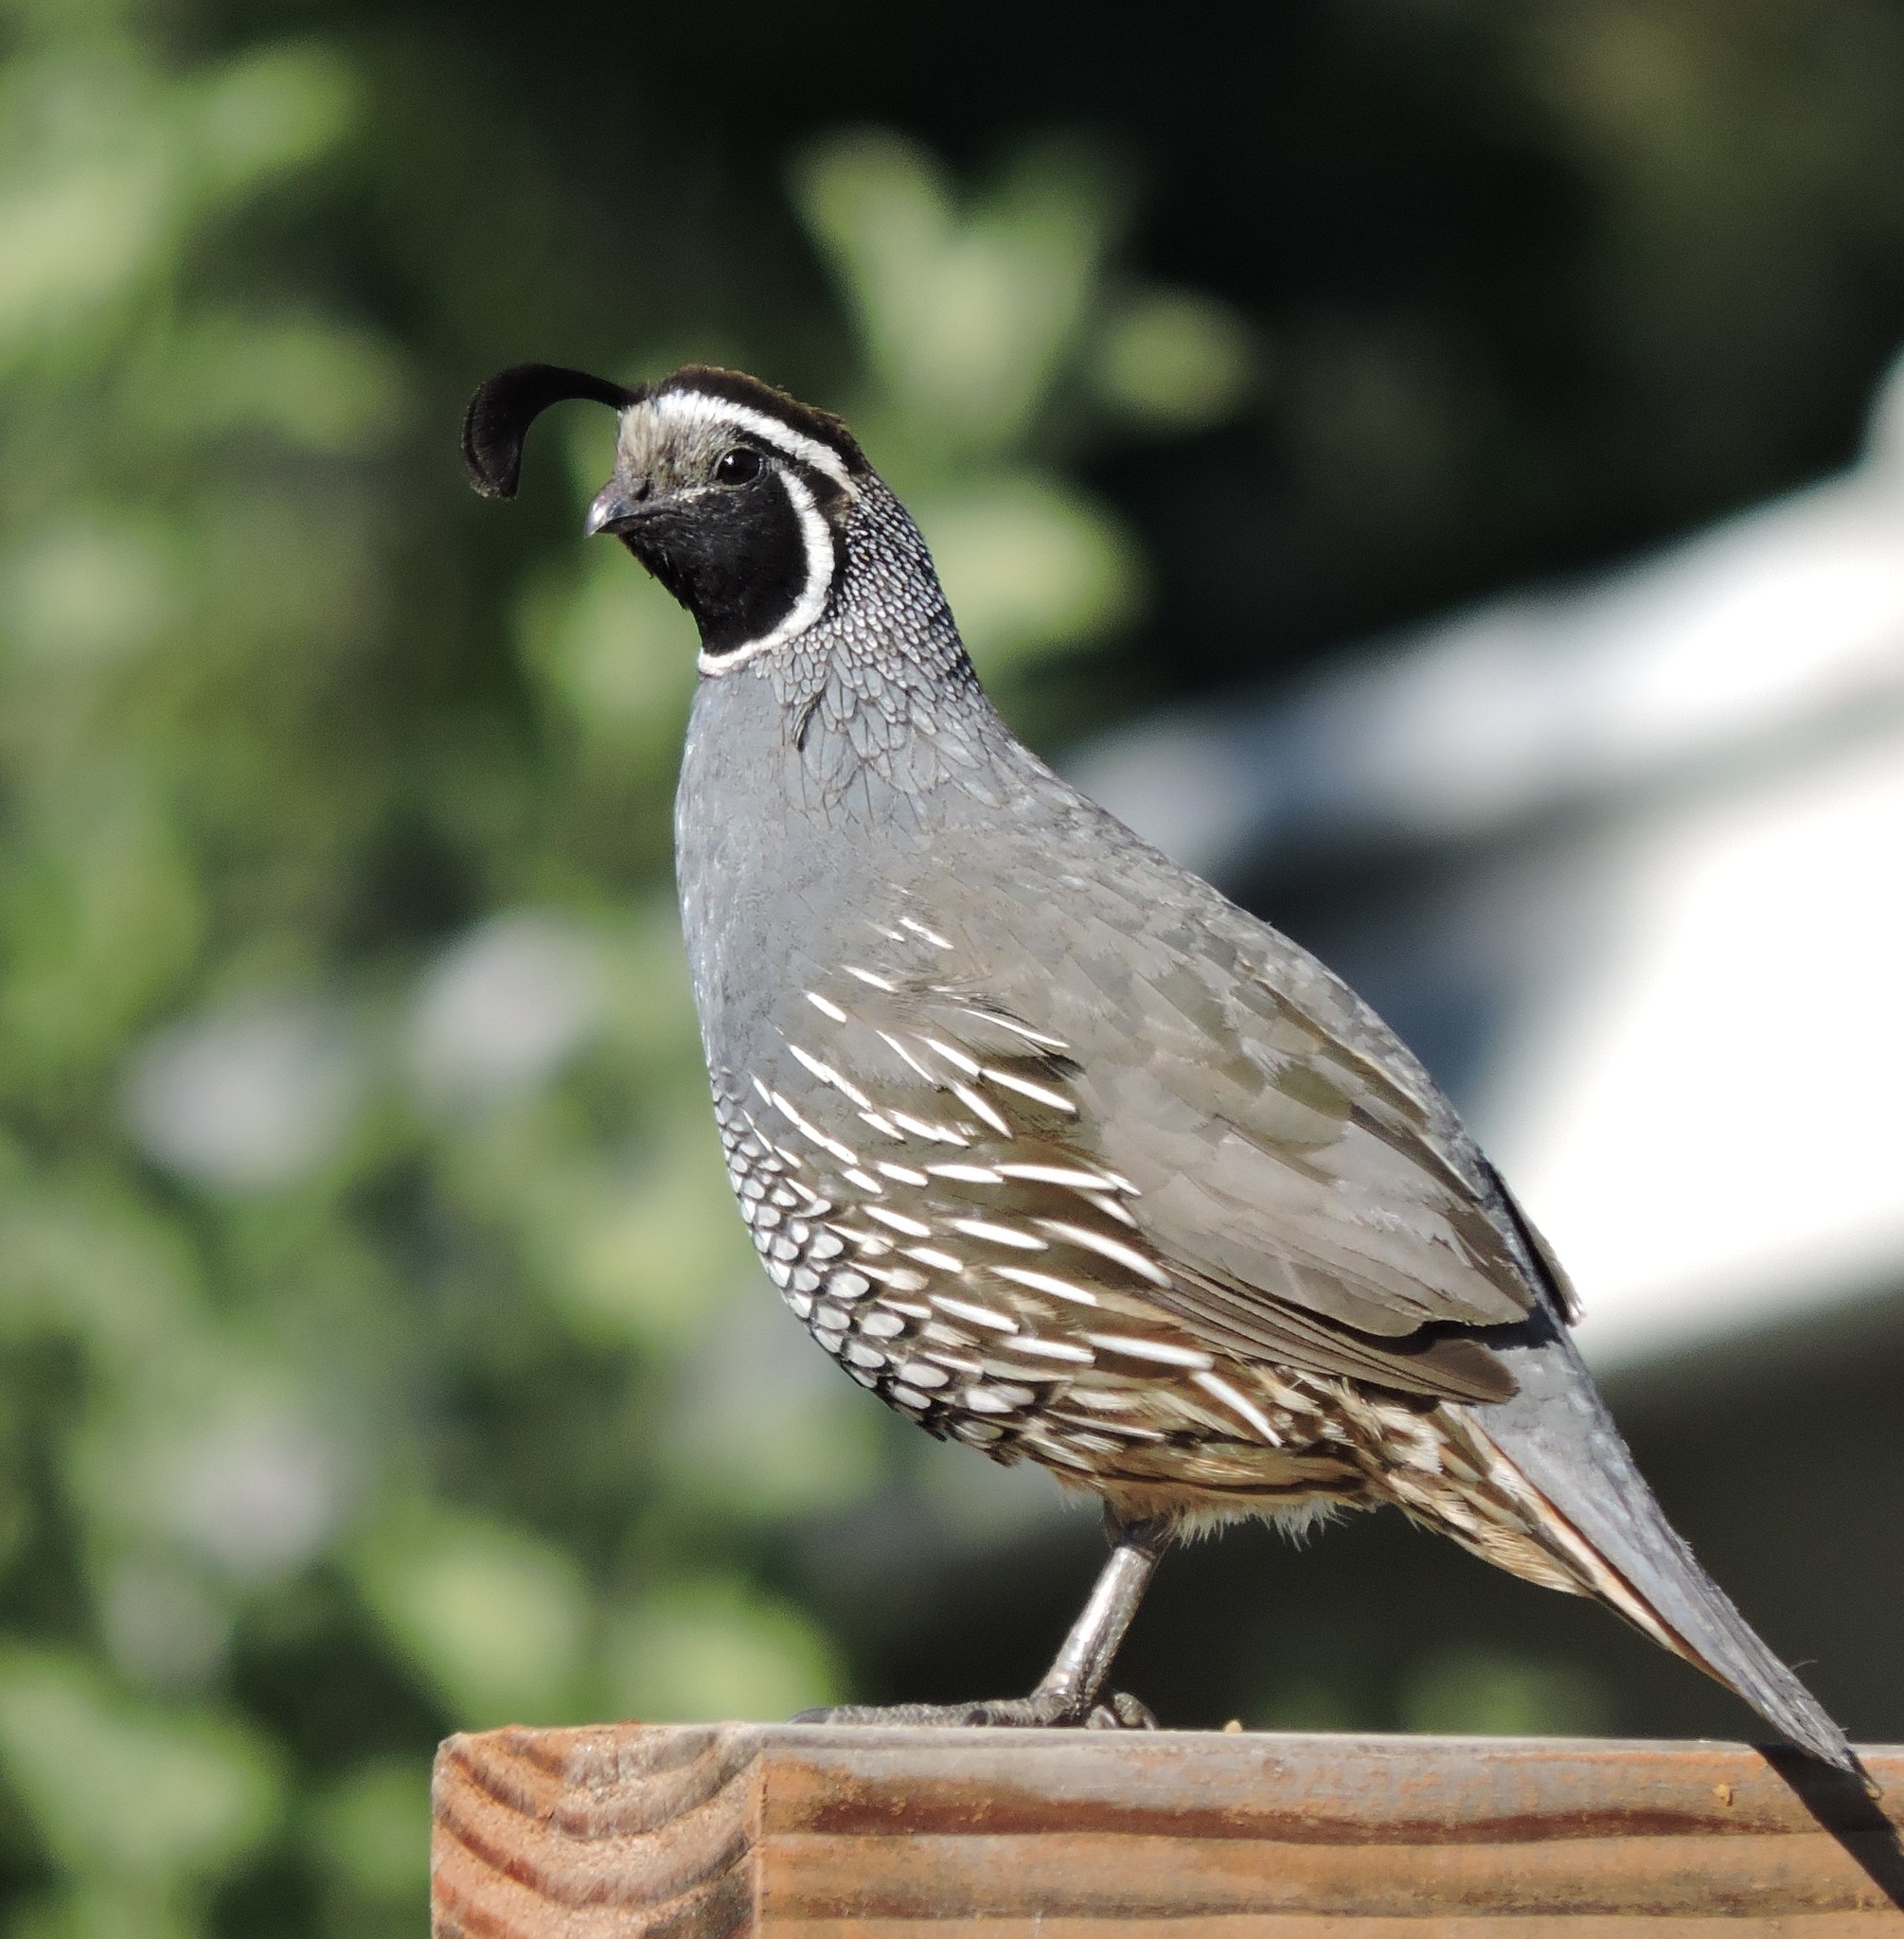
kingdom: Animalia
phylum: Chordata
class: Aves
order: Galliformes
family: Odontophoridae
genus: Callipepla
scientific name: Callipepla californica
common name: California quail
